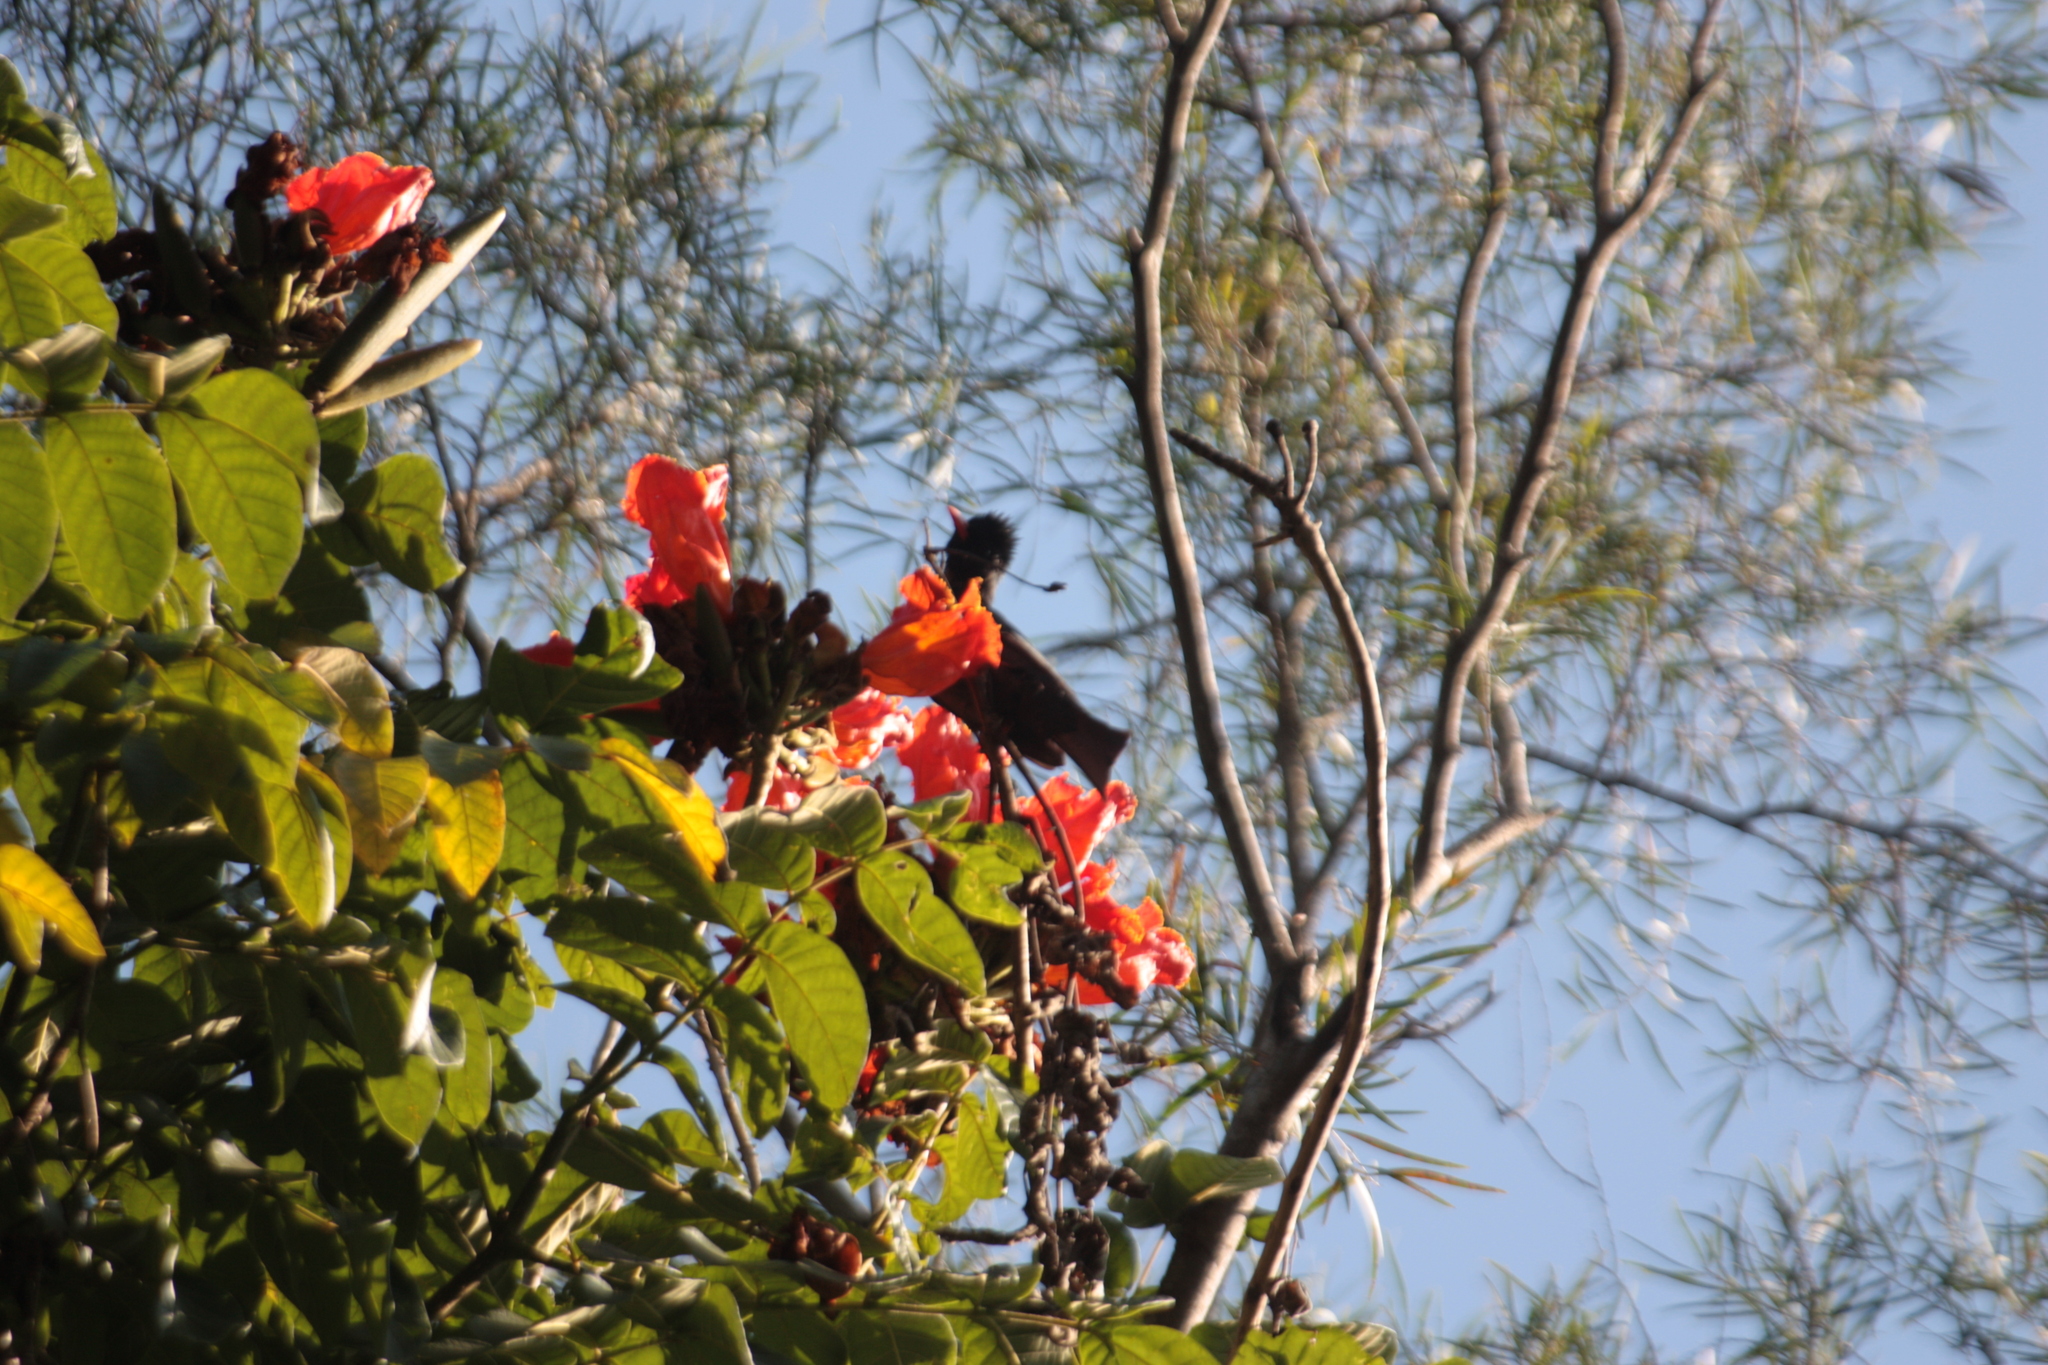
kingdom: Animalia
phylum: Chordata
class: Aves
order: Passeriformes
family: Pycnonotidae
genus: Hypsipetes
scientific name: Hypsipetes leucocephalus
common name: Black bulbul
